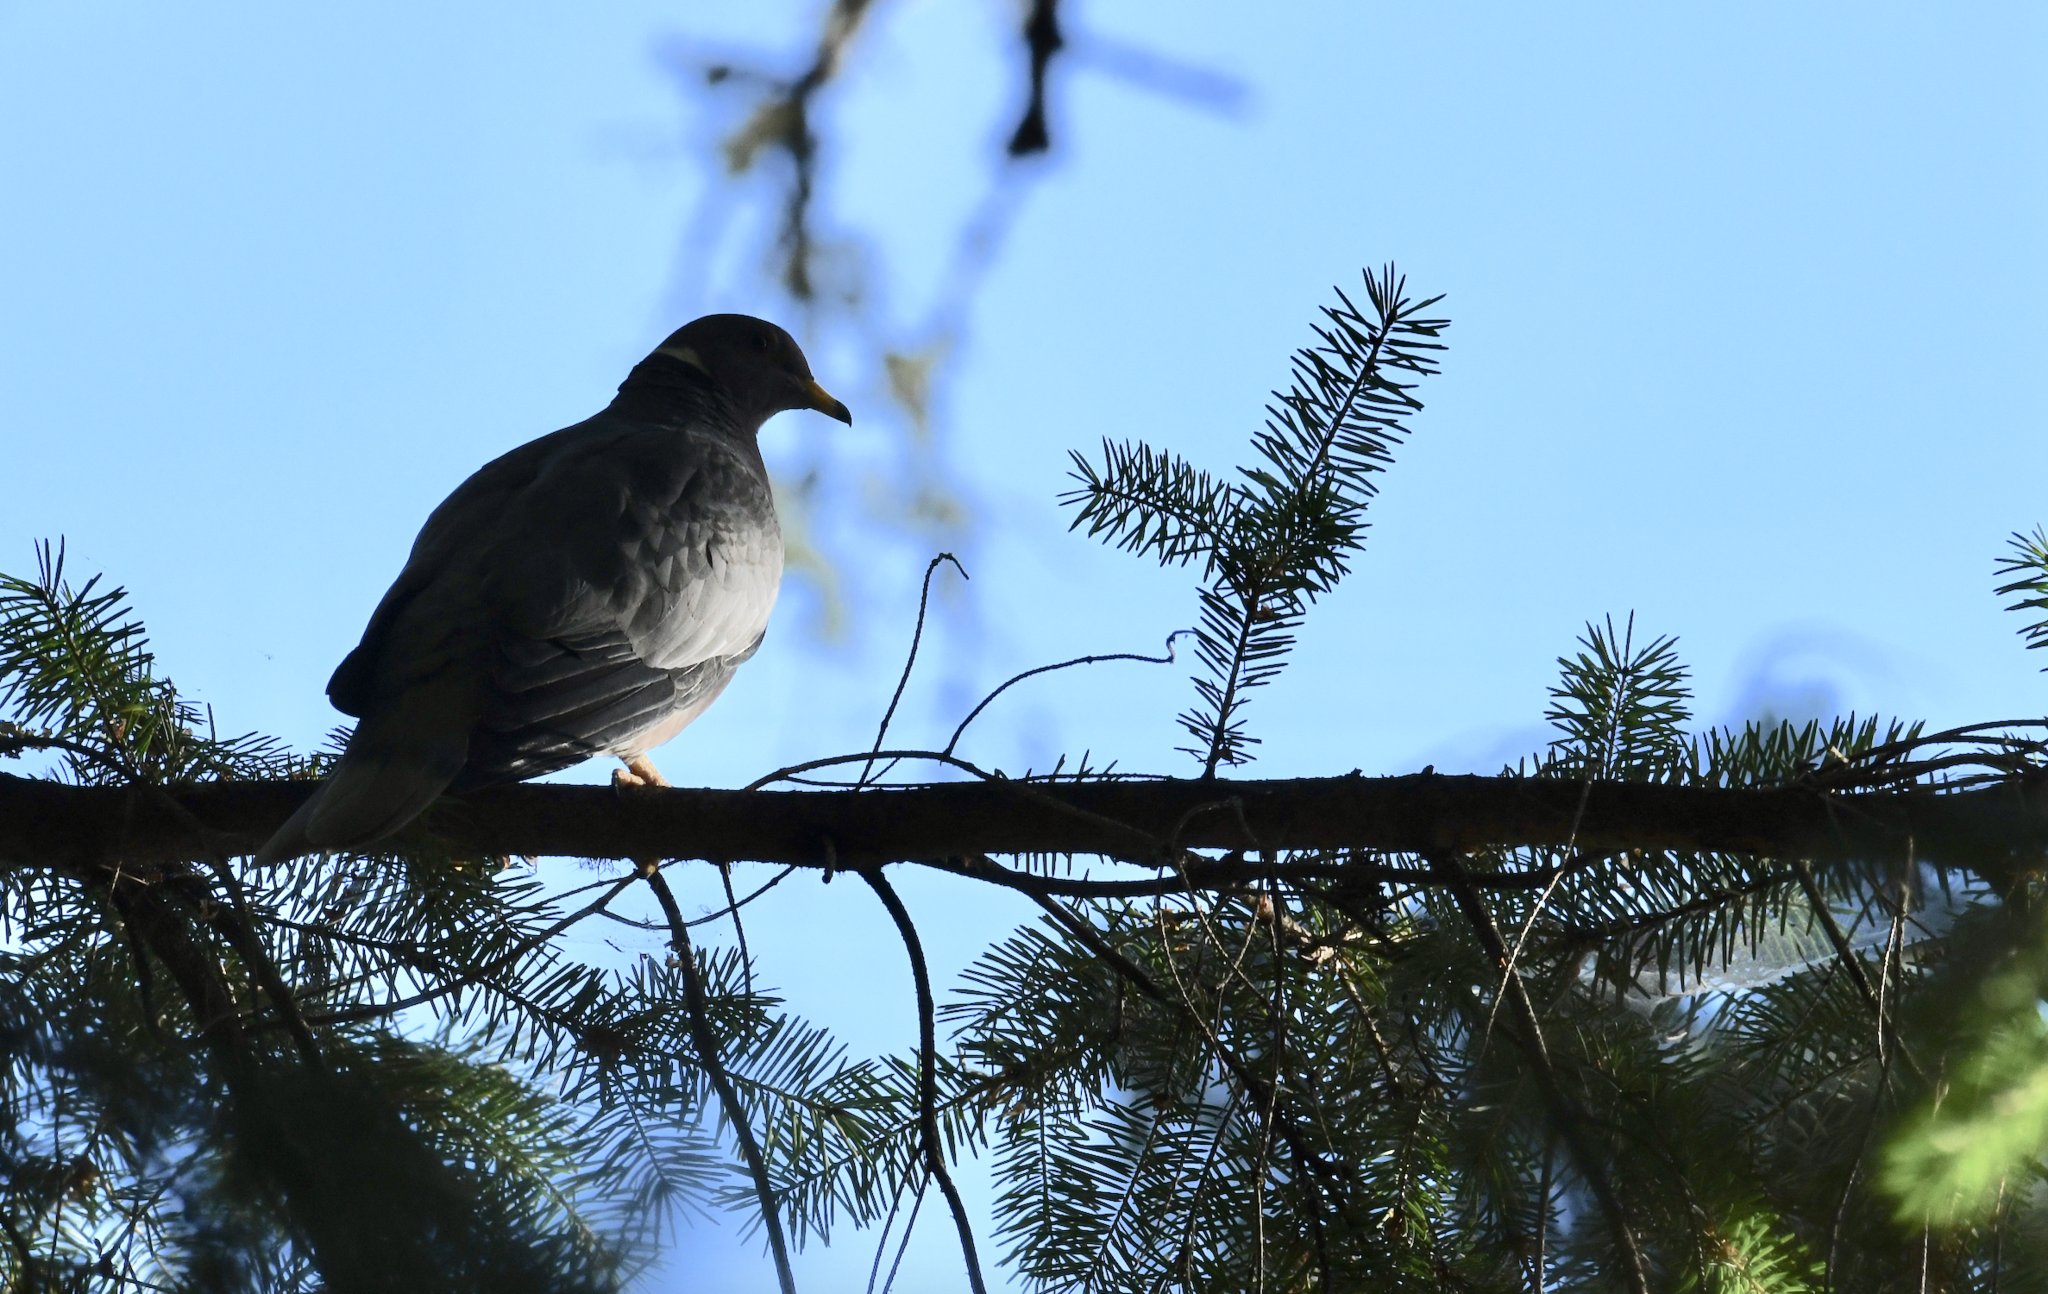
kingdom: Animalia
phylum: Chordata
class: Aves
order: Columbiformes
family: Columbidae
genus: Patagioenas
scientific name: Patagioenas fasciata
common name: Band-tailed pigeon
